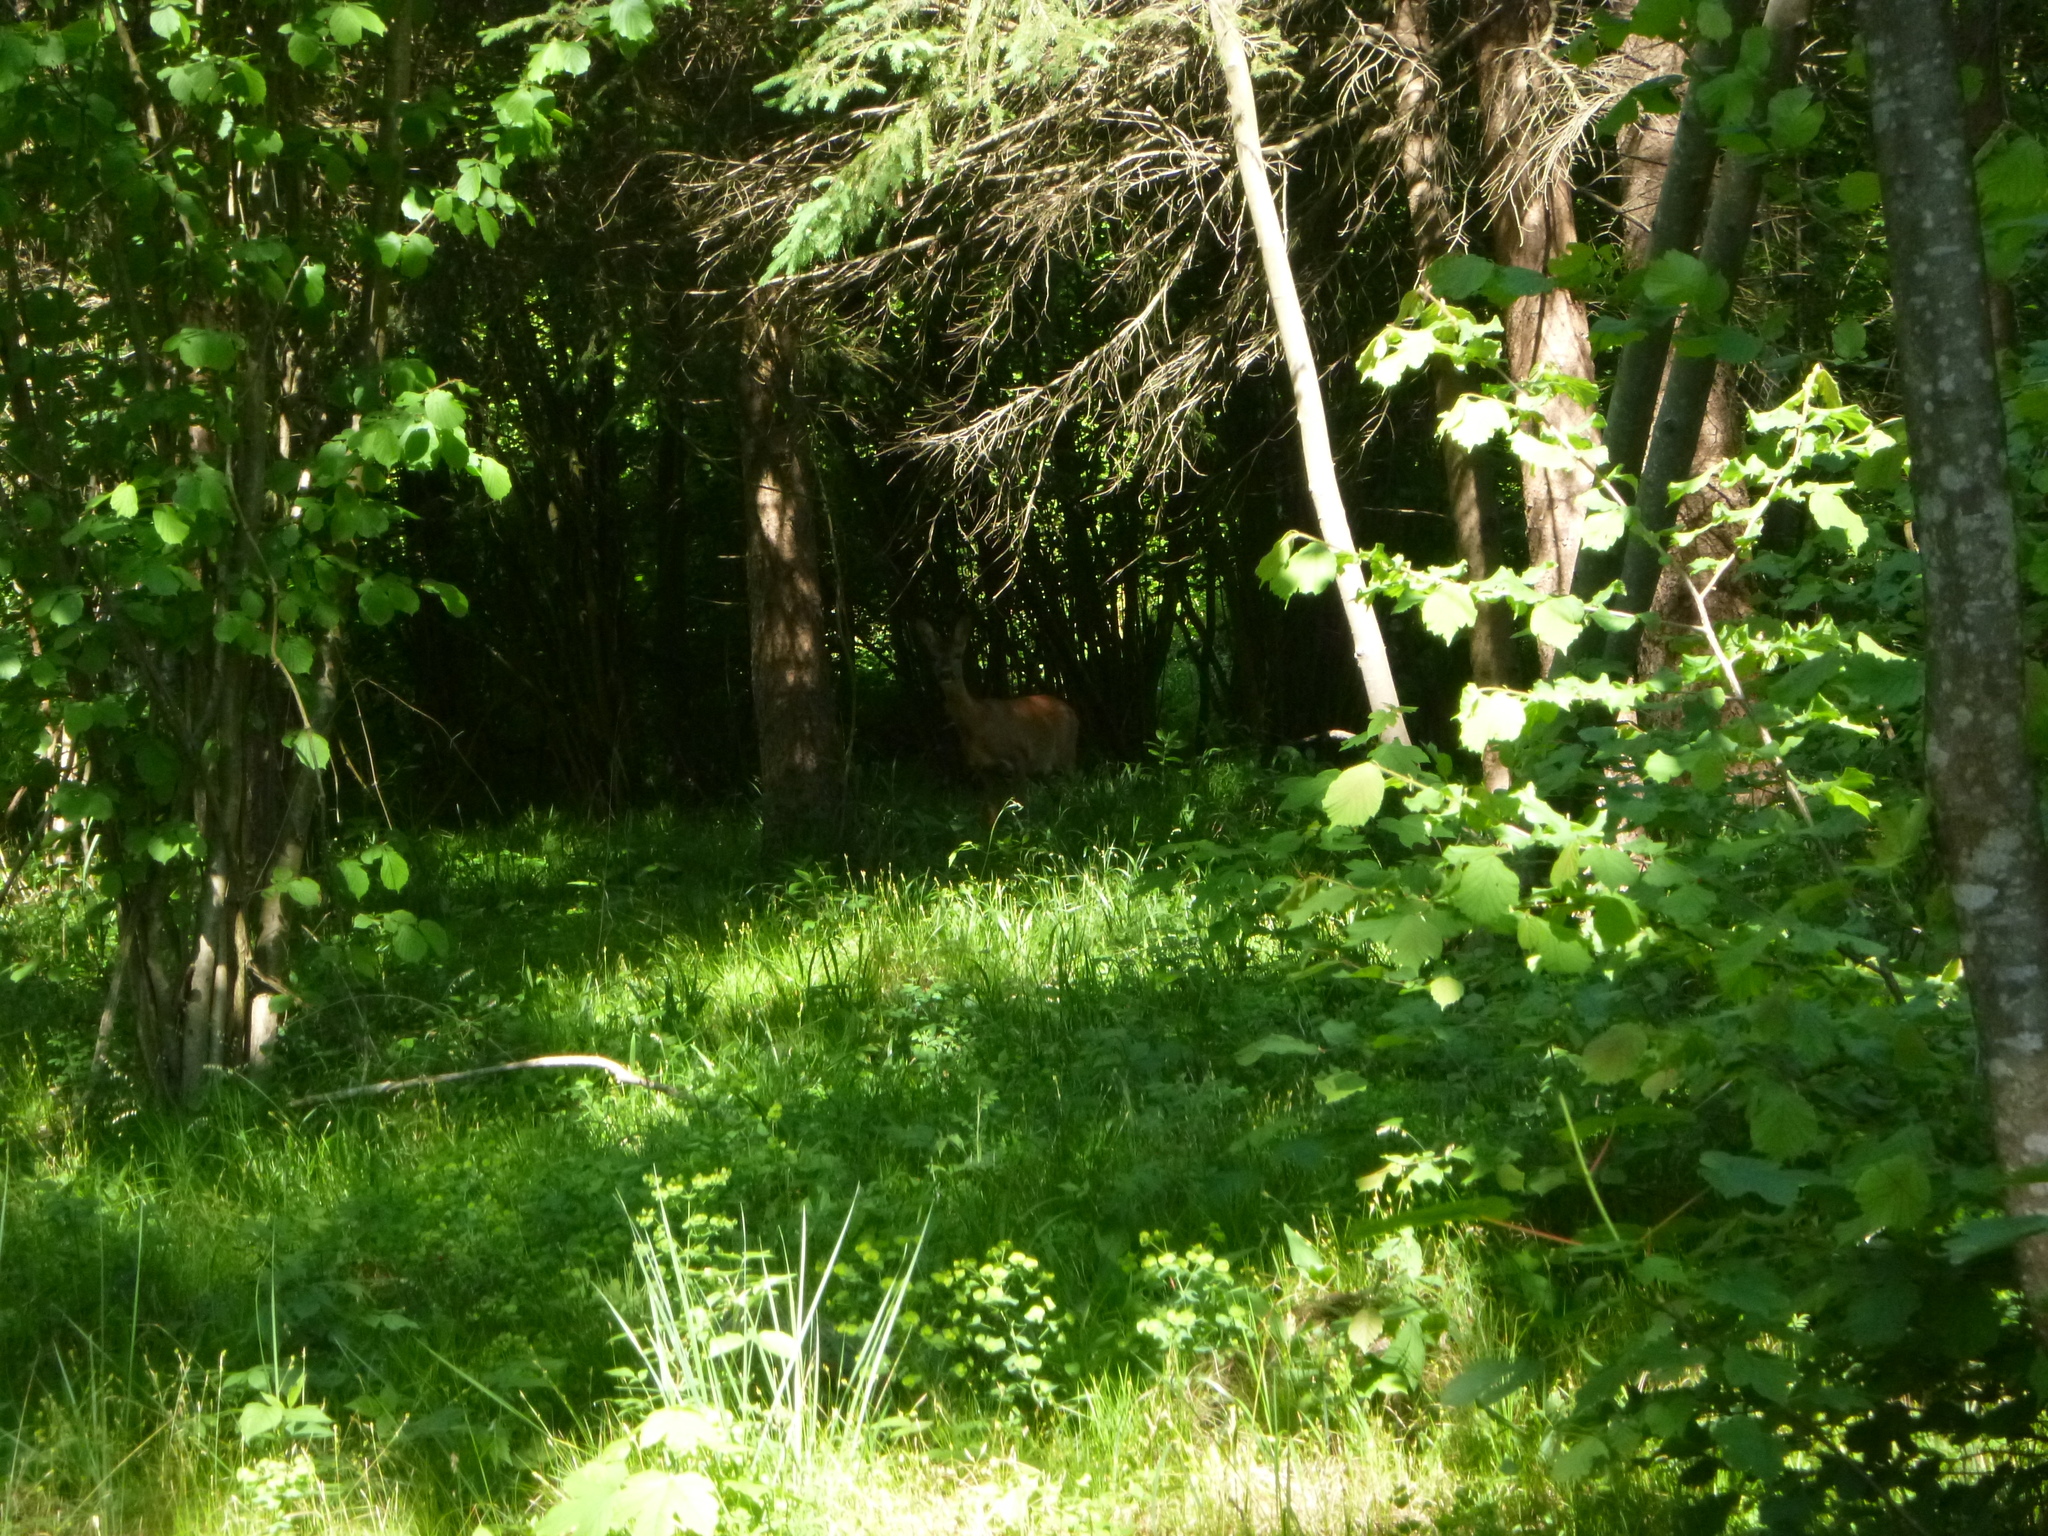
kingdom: Animalia
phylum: Chordata
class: Mammalia
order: Artiodactyla
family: Cervidae
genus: Capreolus
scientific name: Capreolus capreolus
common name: Western roe deer
